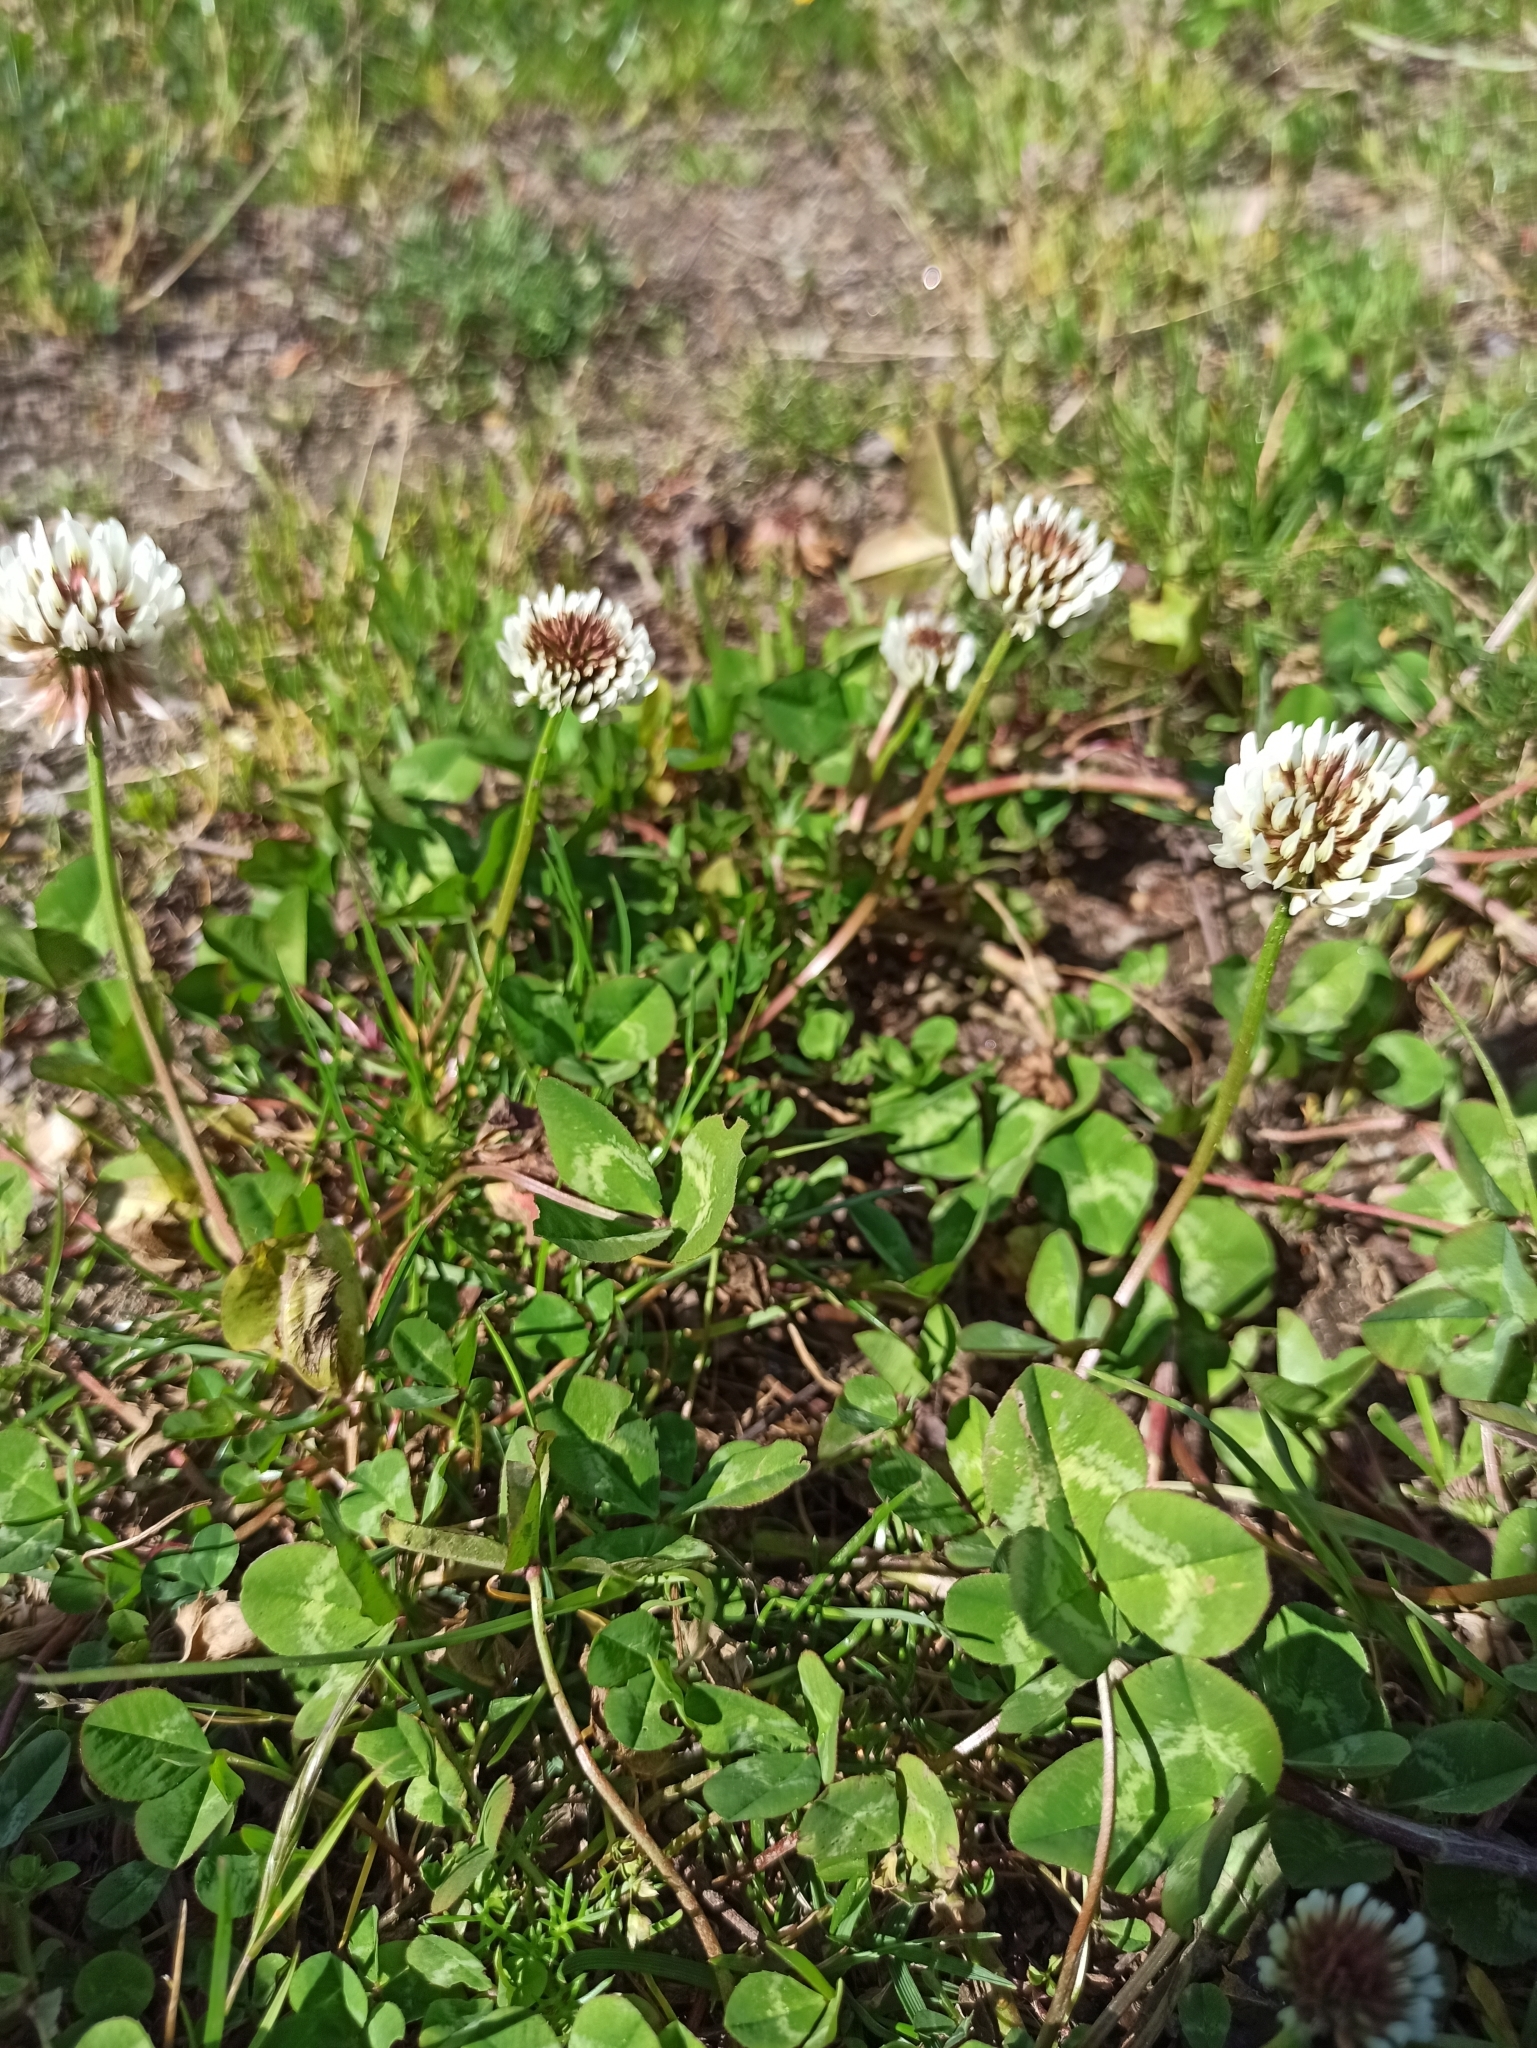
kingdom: Plantae
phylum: Tracheophyta
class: Magnoliopsida
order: Fabales
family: Fabaceae
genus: Trifolium
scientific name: Trifolium repens
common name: White clover
